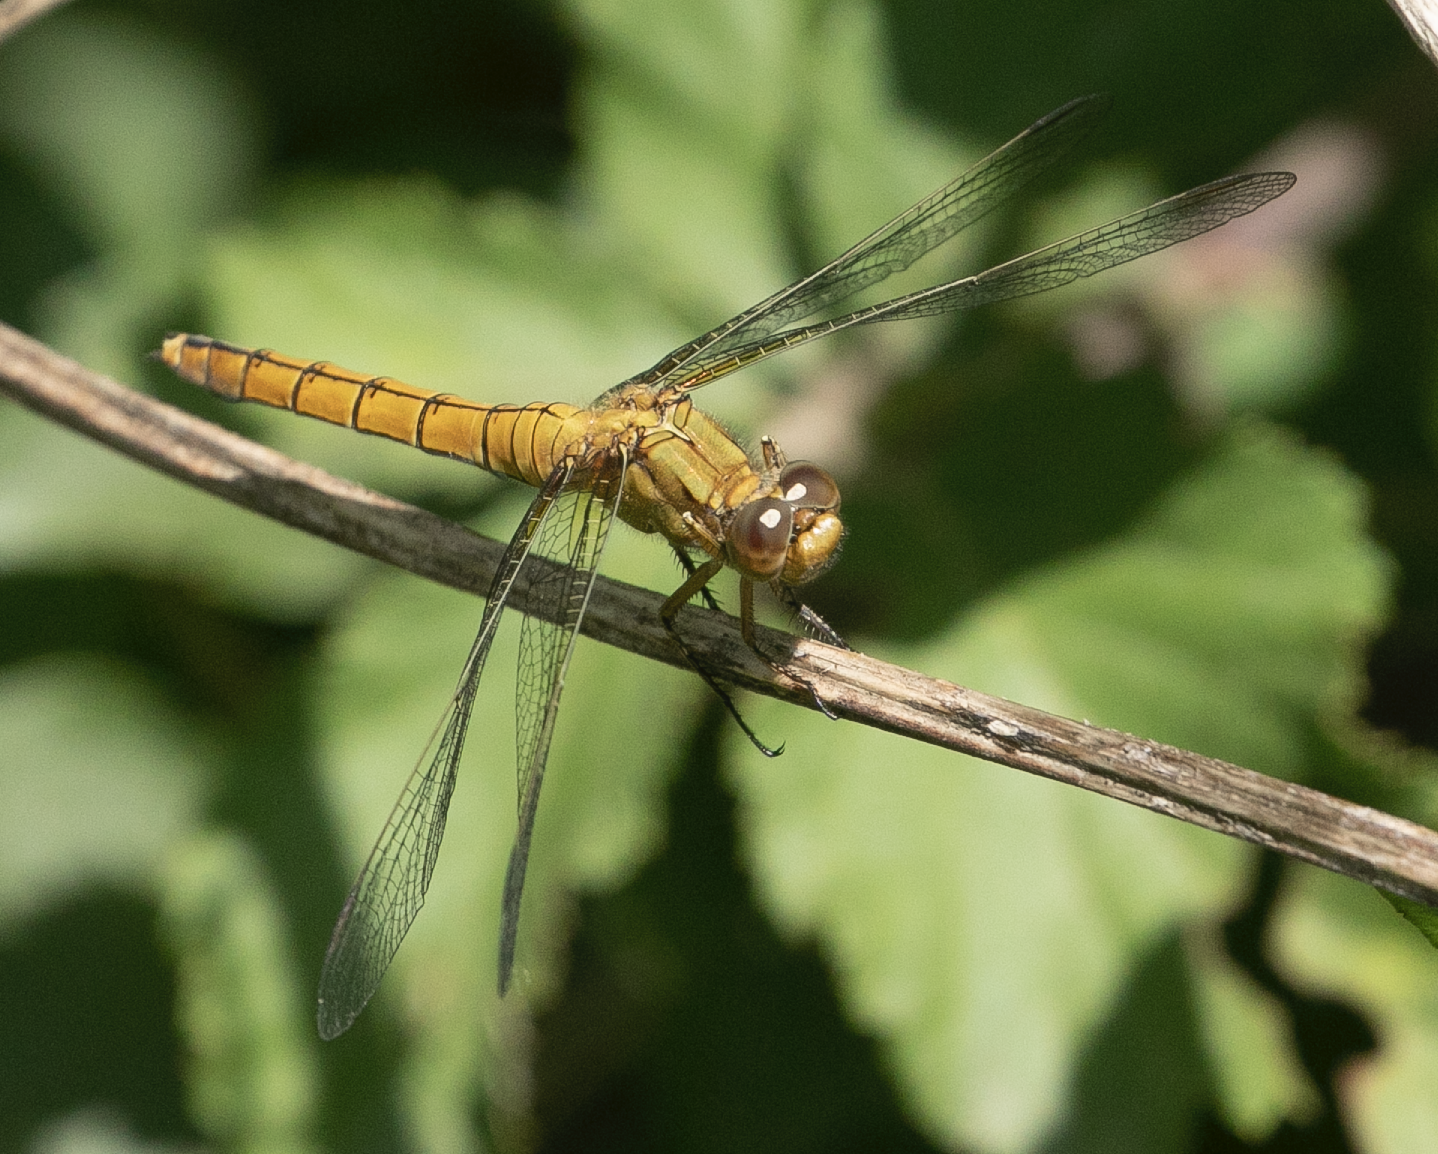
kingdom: Animalia
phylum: Arthropoda
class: Insecta
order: Odonata
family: Libellulidae
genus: Orthetrum
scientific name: Orthetrum coerulescens
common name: Keeled skimmer
